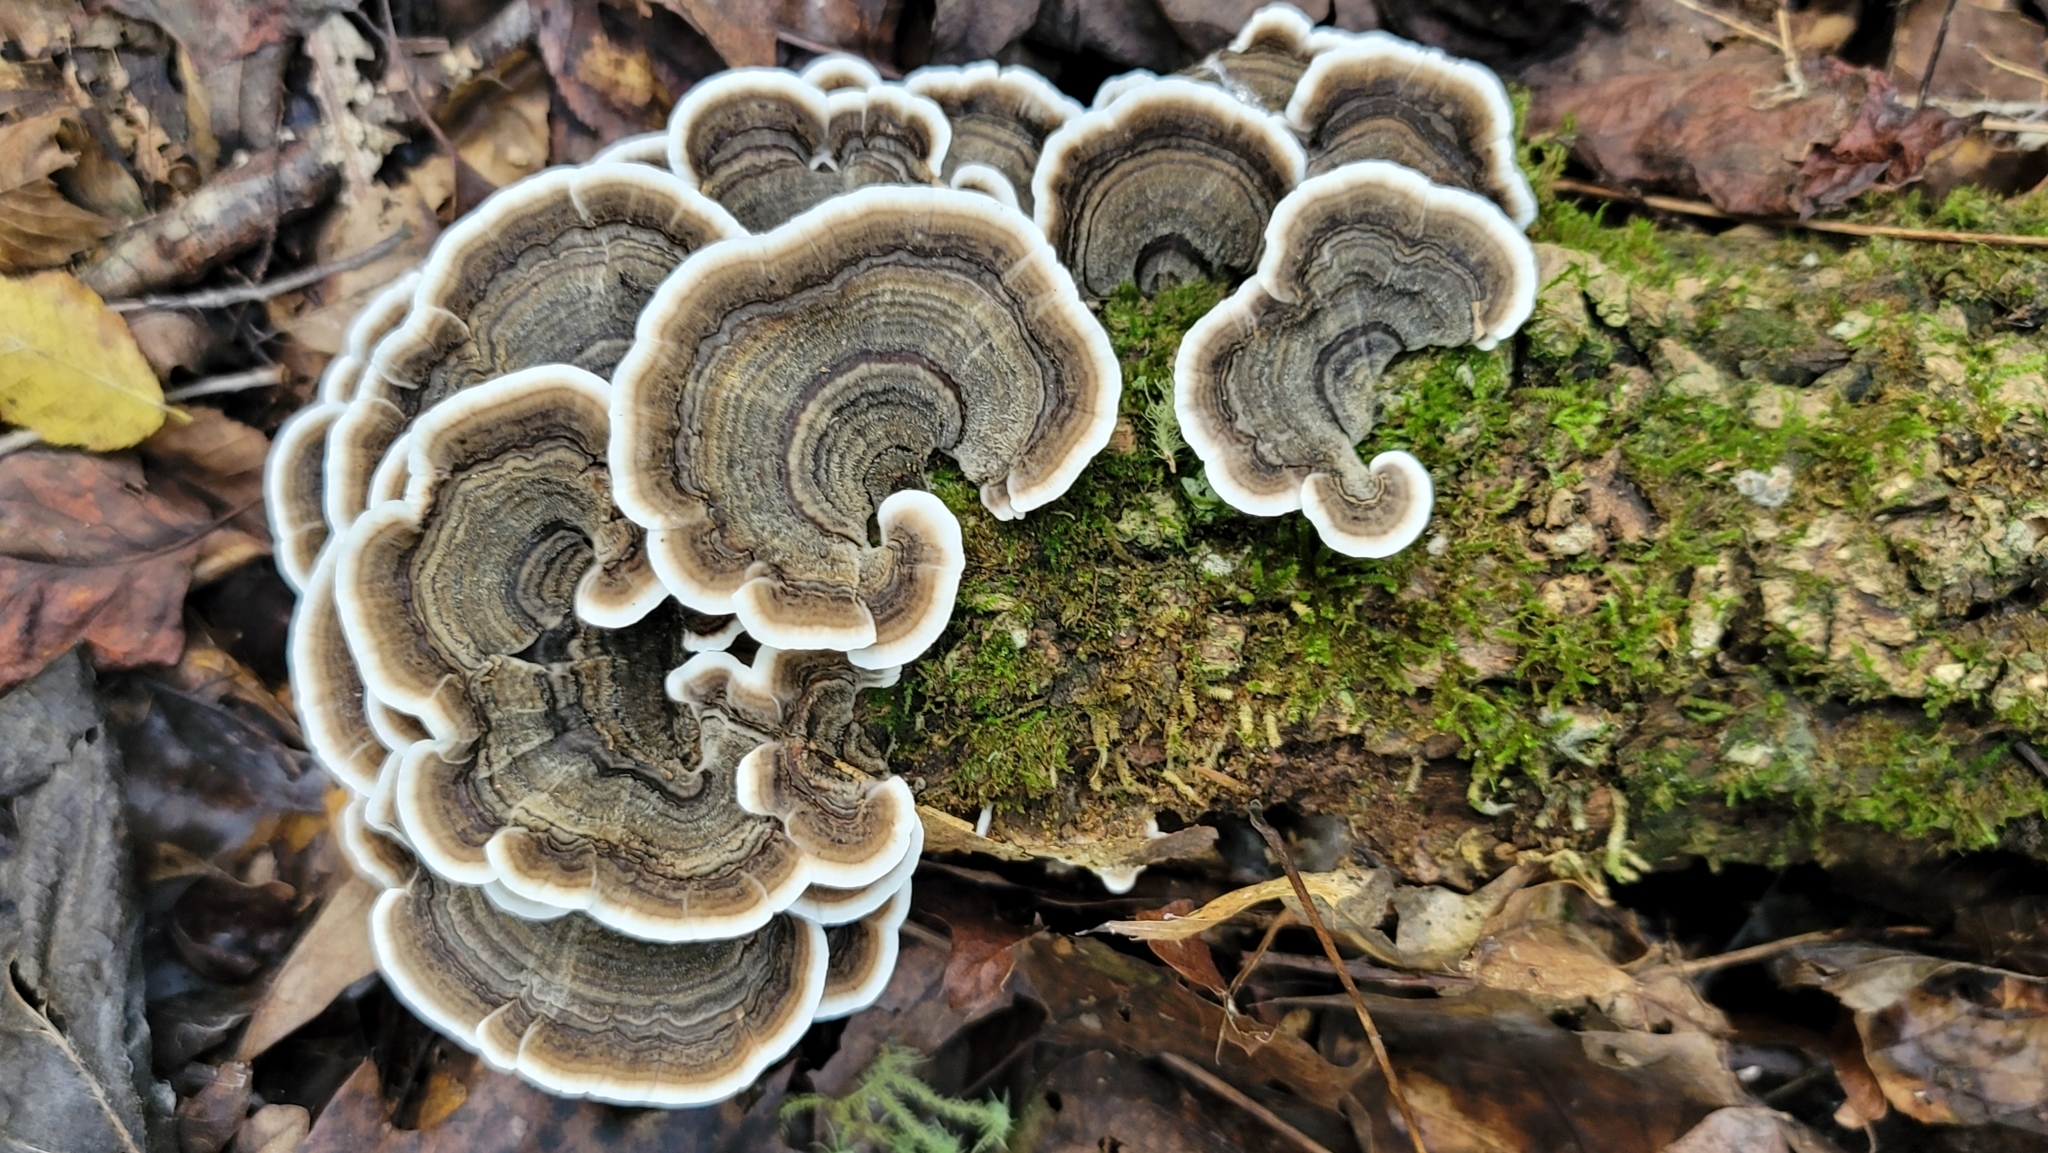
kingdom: Fungi
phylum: Basidiomycota
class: Agaricomycetes
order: Polyporales
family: Polyporaceae
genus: Trametes
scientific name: Trametes versicolor
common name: Turkeytail
